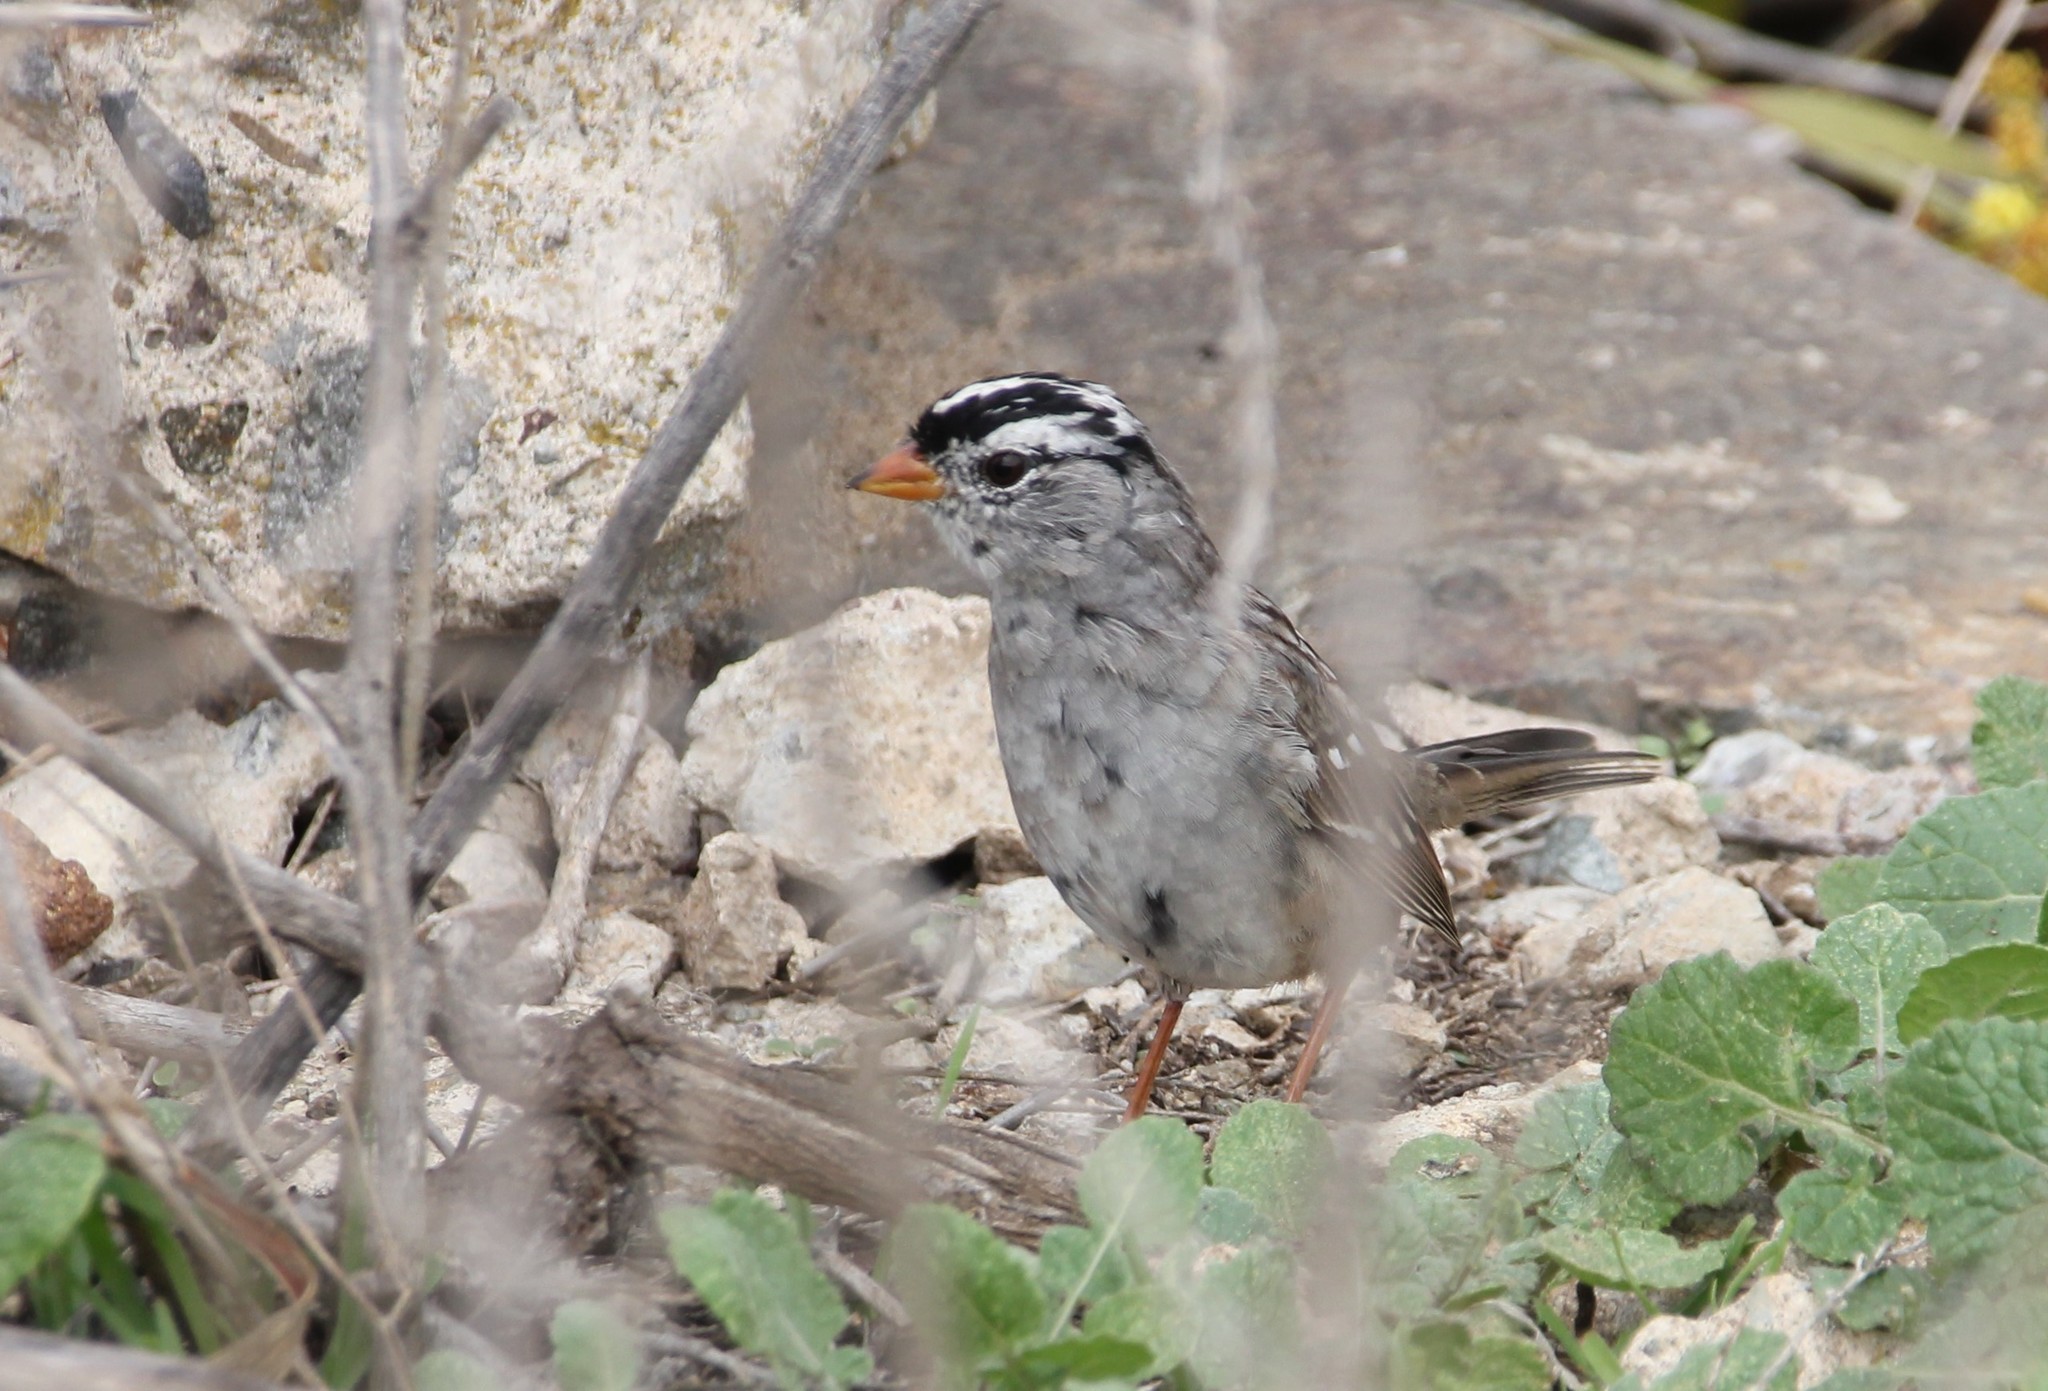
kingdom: Animalia
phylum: Chordata
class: Aves
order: Passeriformes
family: Passerellidae
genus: Zonotrichia
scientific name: Zonotrichia leucophrys
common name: White-crowned sparrow
